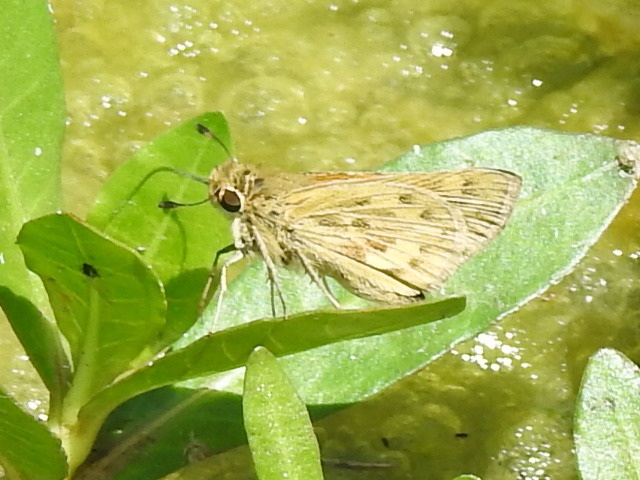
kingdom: Animalia
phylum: Arthropoda
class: Insecta
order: Lepidoptera
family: Hesperiidae
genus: Hylephila
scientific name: Hylephila phyleus
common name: Fiery skipper
